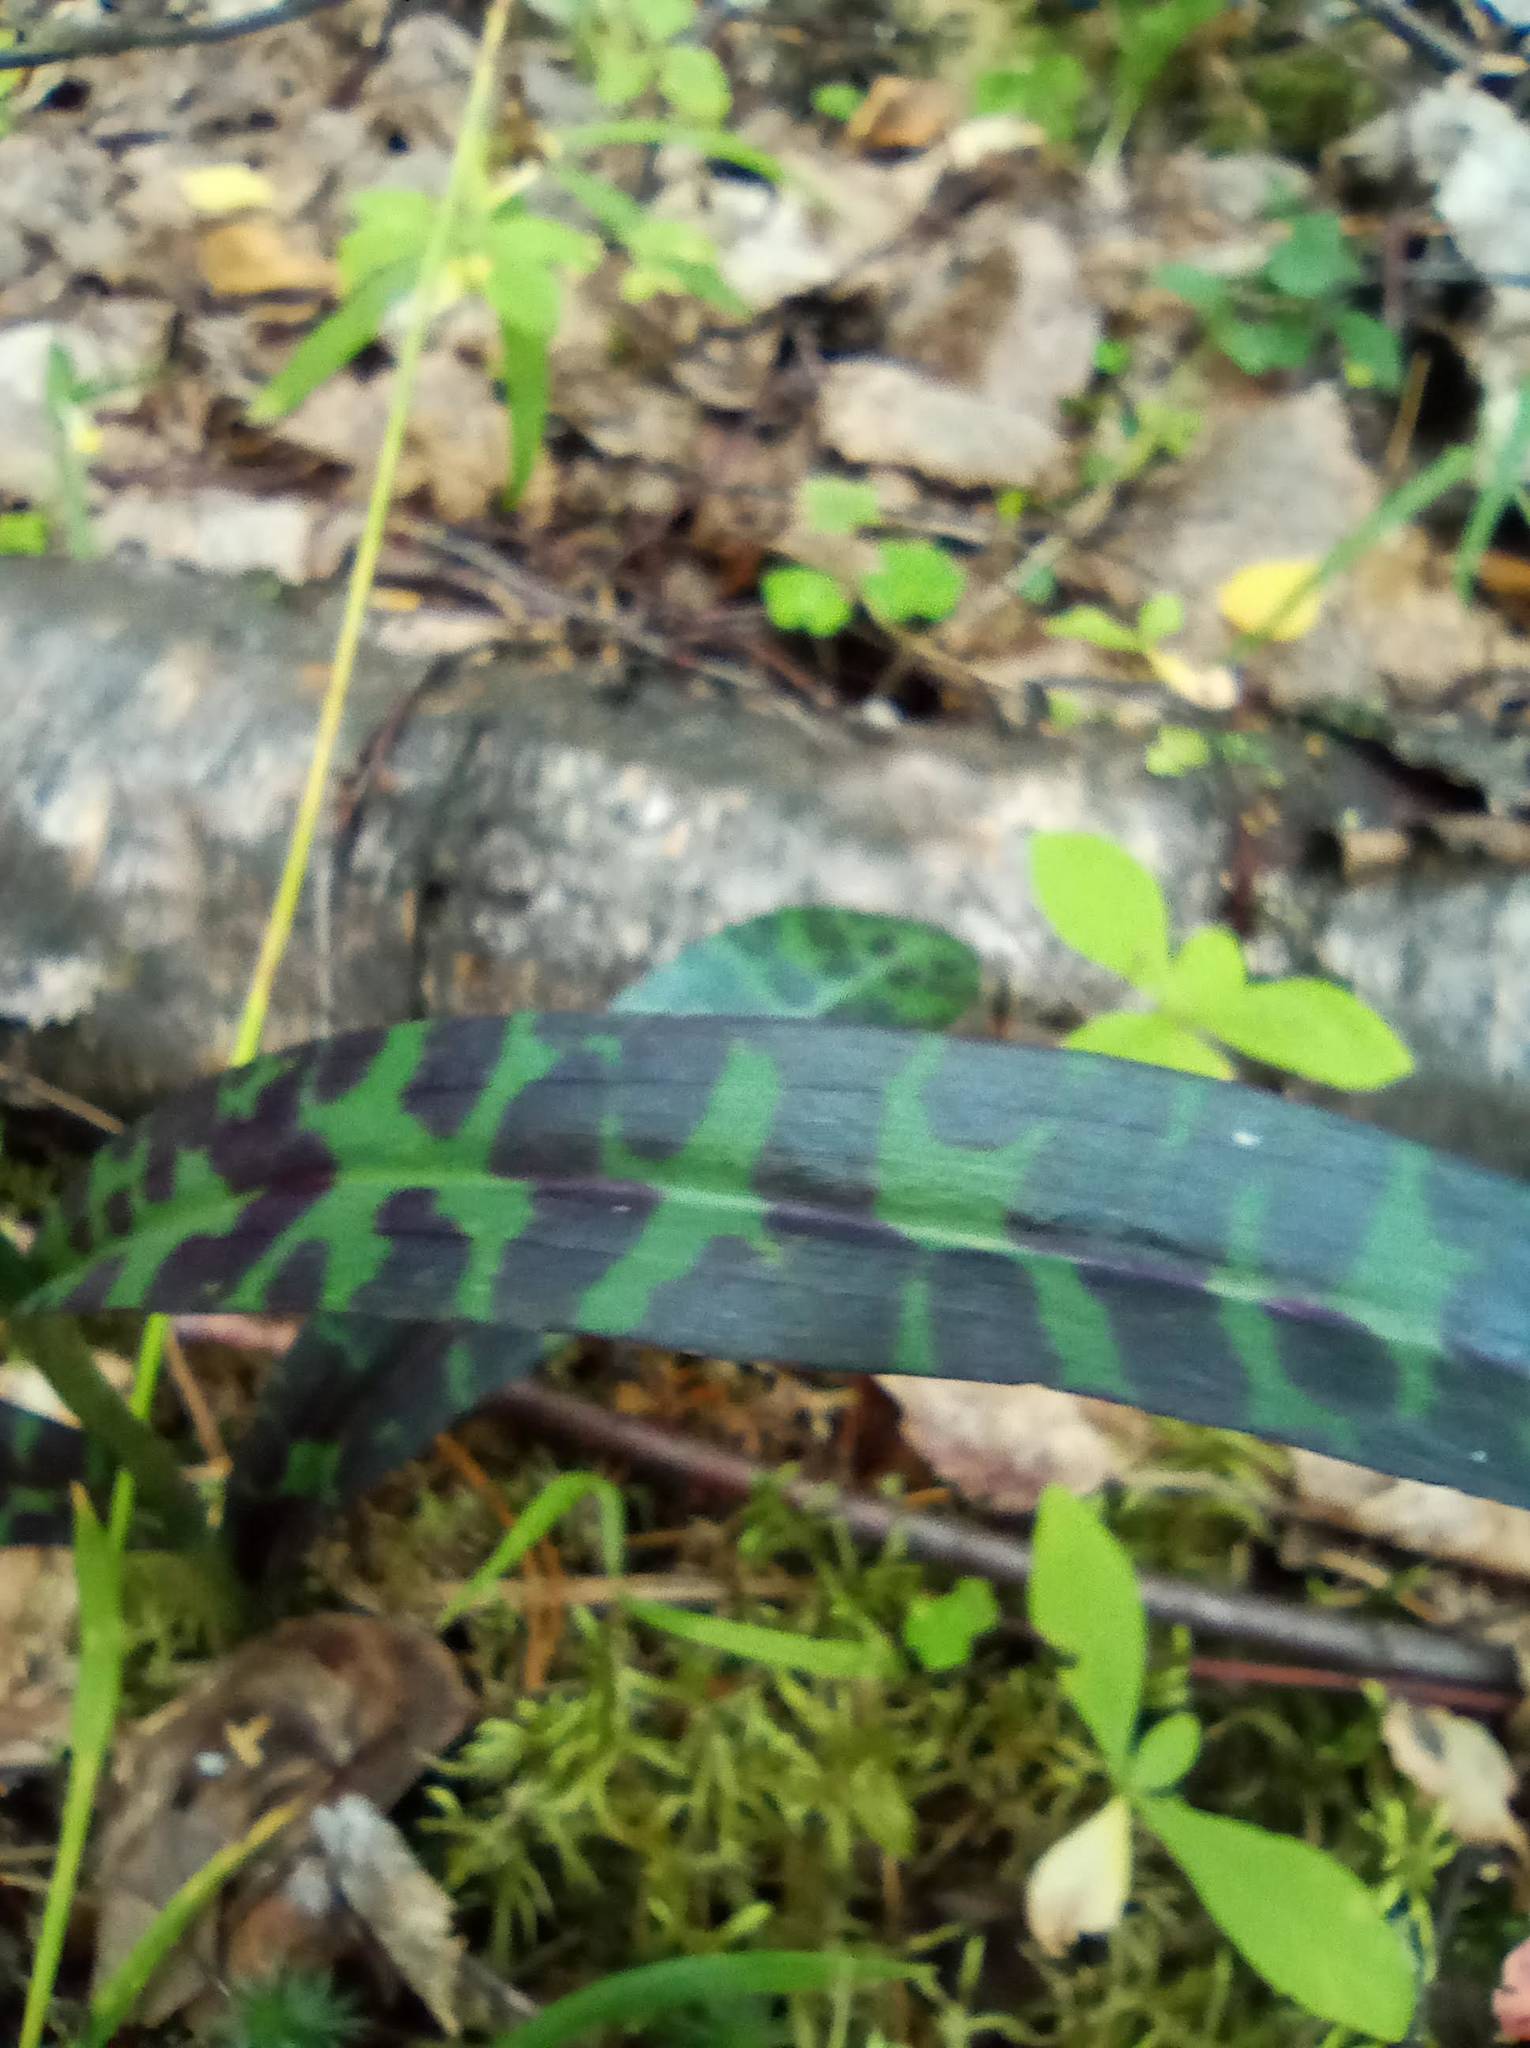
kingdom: Plantae
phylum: Tracheophyta
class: Liliopsida
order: Asparagales
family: Orchidaceae
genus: Dactylorhiza
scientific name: Dactylorhiza maculata
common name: Heath spotted-orchid
